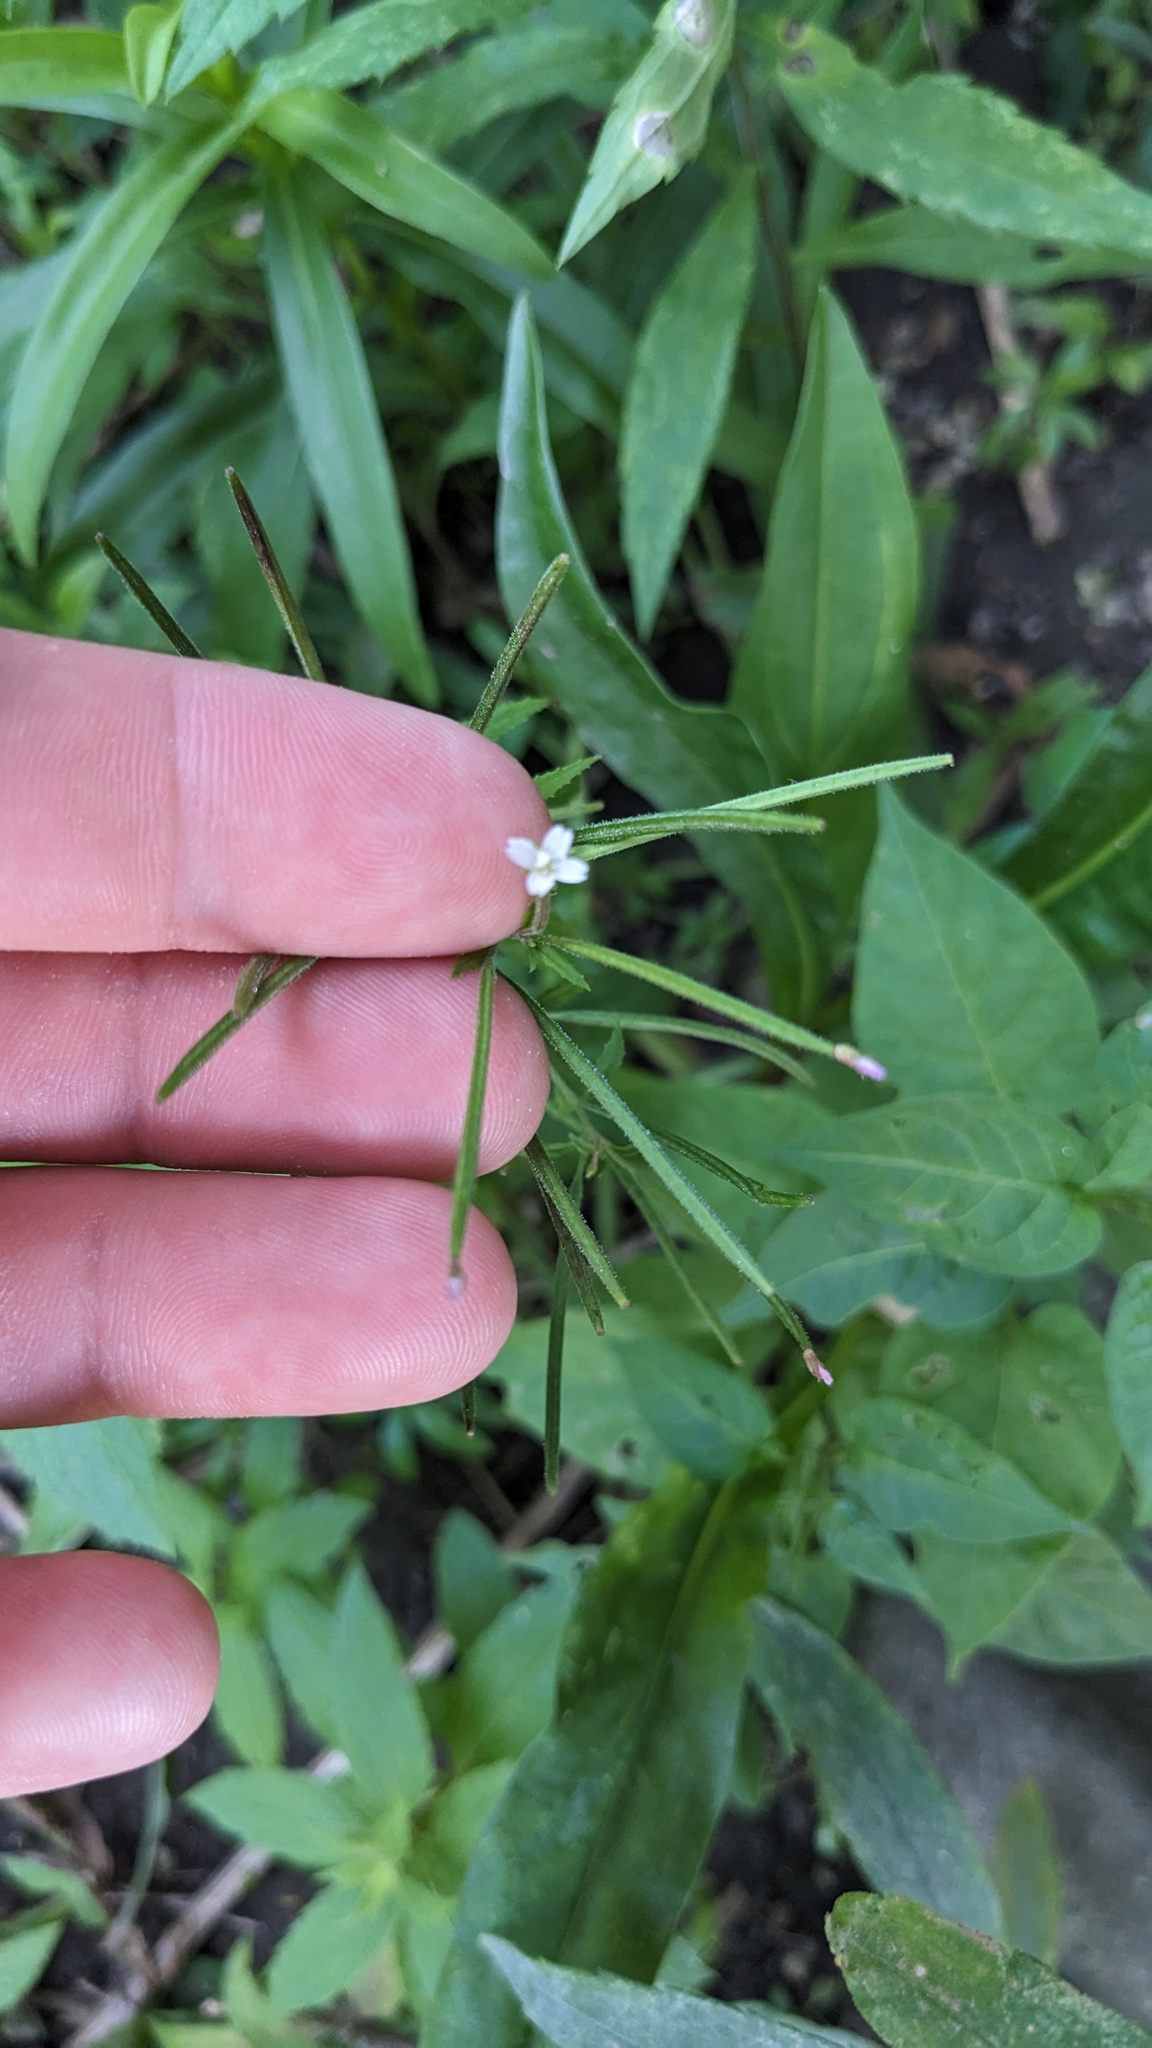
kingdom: Plantae
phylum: Tracheophyta
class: Magnoliopsida
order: Myrtales
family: Onagraceae
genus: Epilobium
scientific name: Epilobium coloratum
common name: Bronze willowherb
